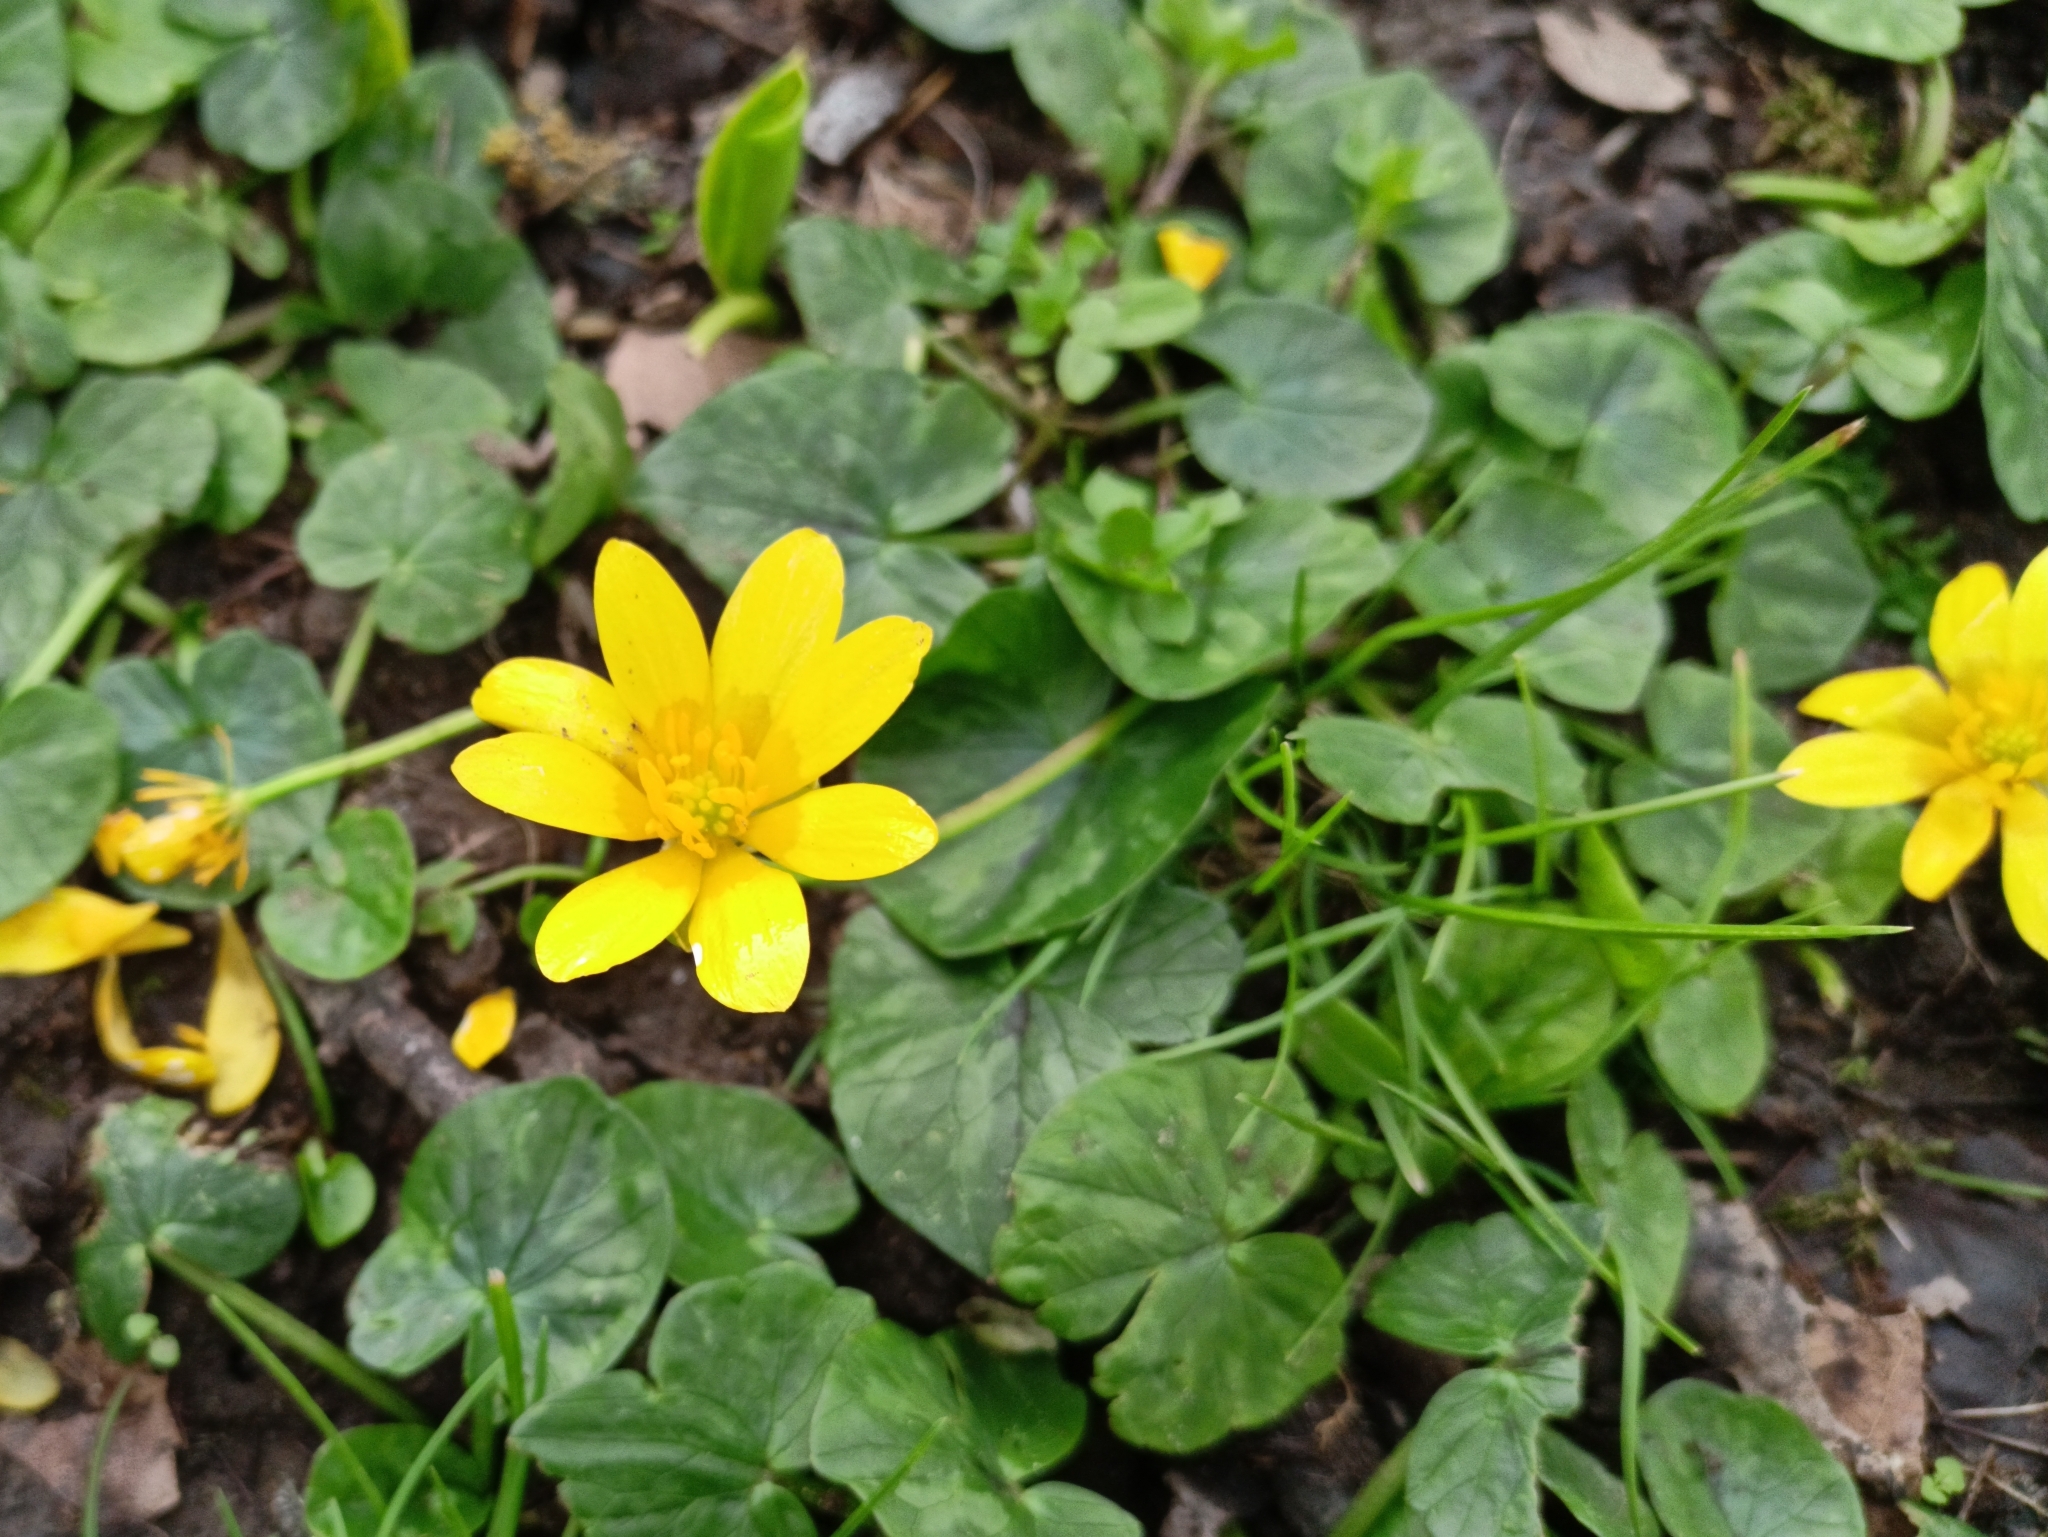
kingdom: Plantae
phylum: Tracheophyta
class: Magnoliopsida
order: Ranunculales
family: Ranunculaceae
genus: Ficaria
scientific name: Ficaria verna
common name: Lesser celandine
